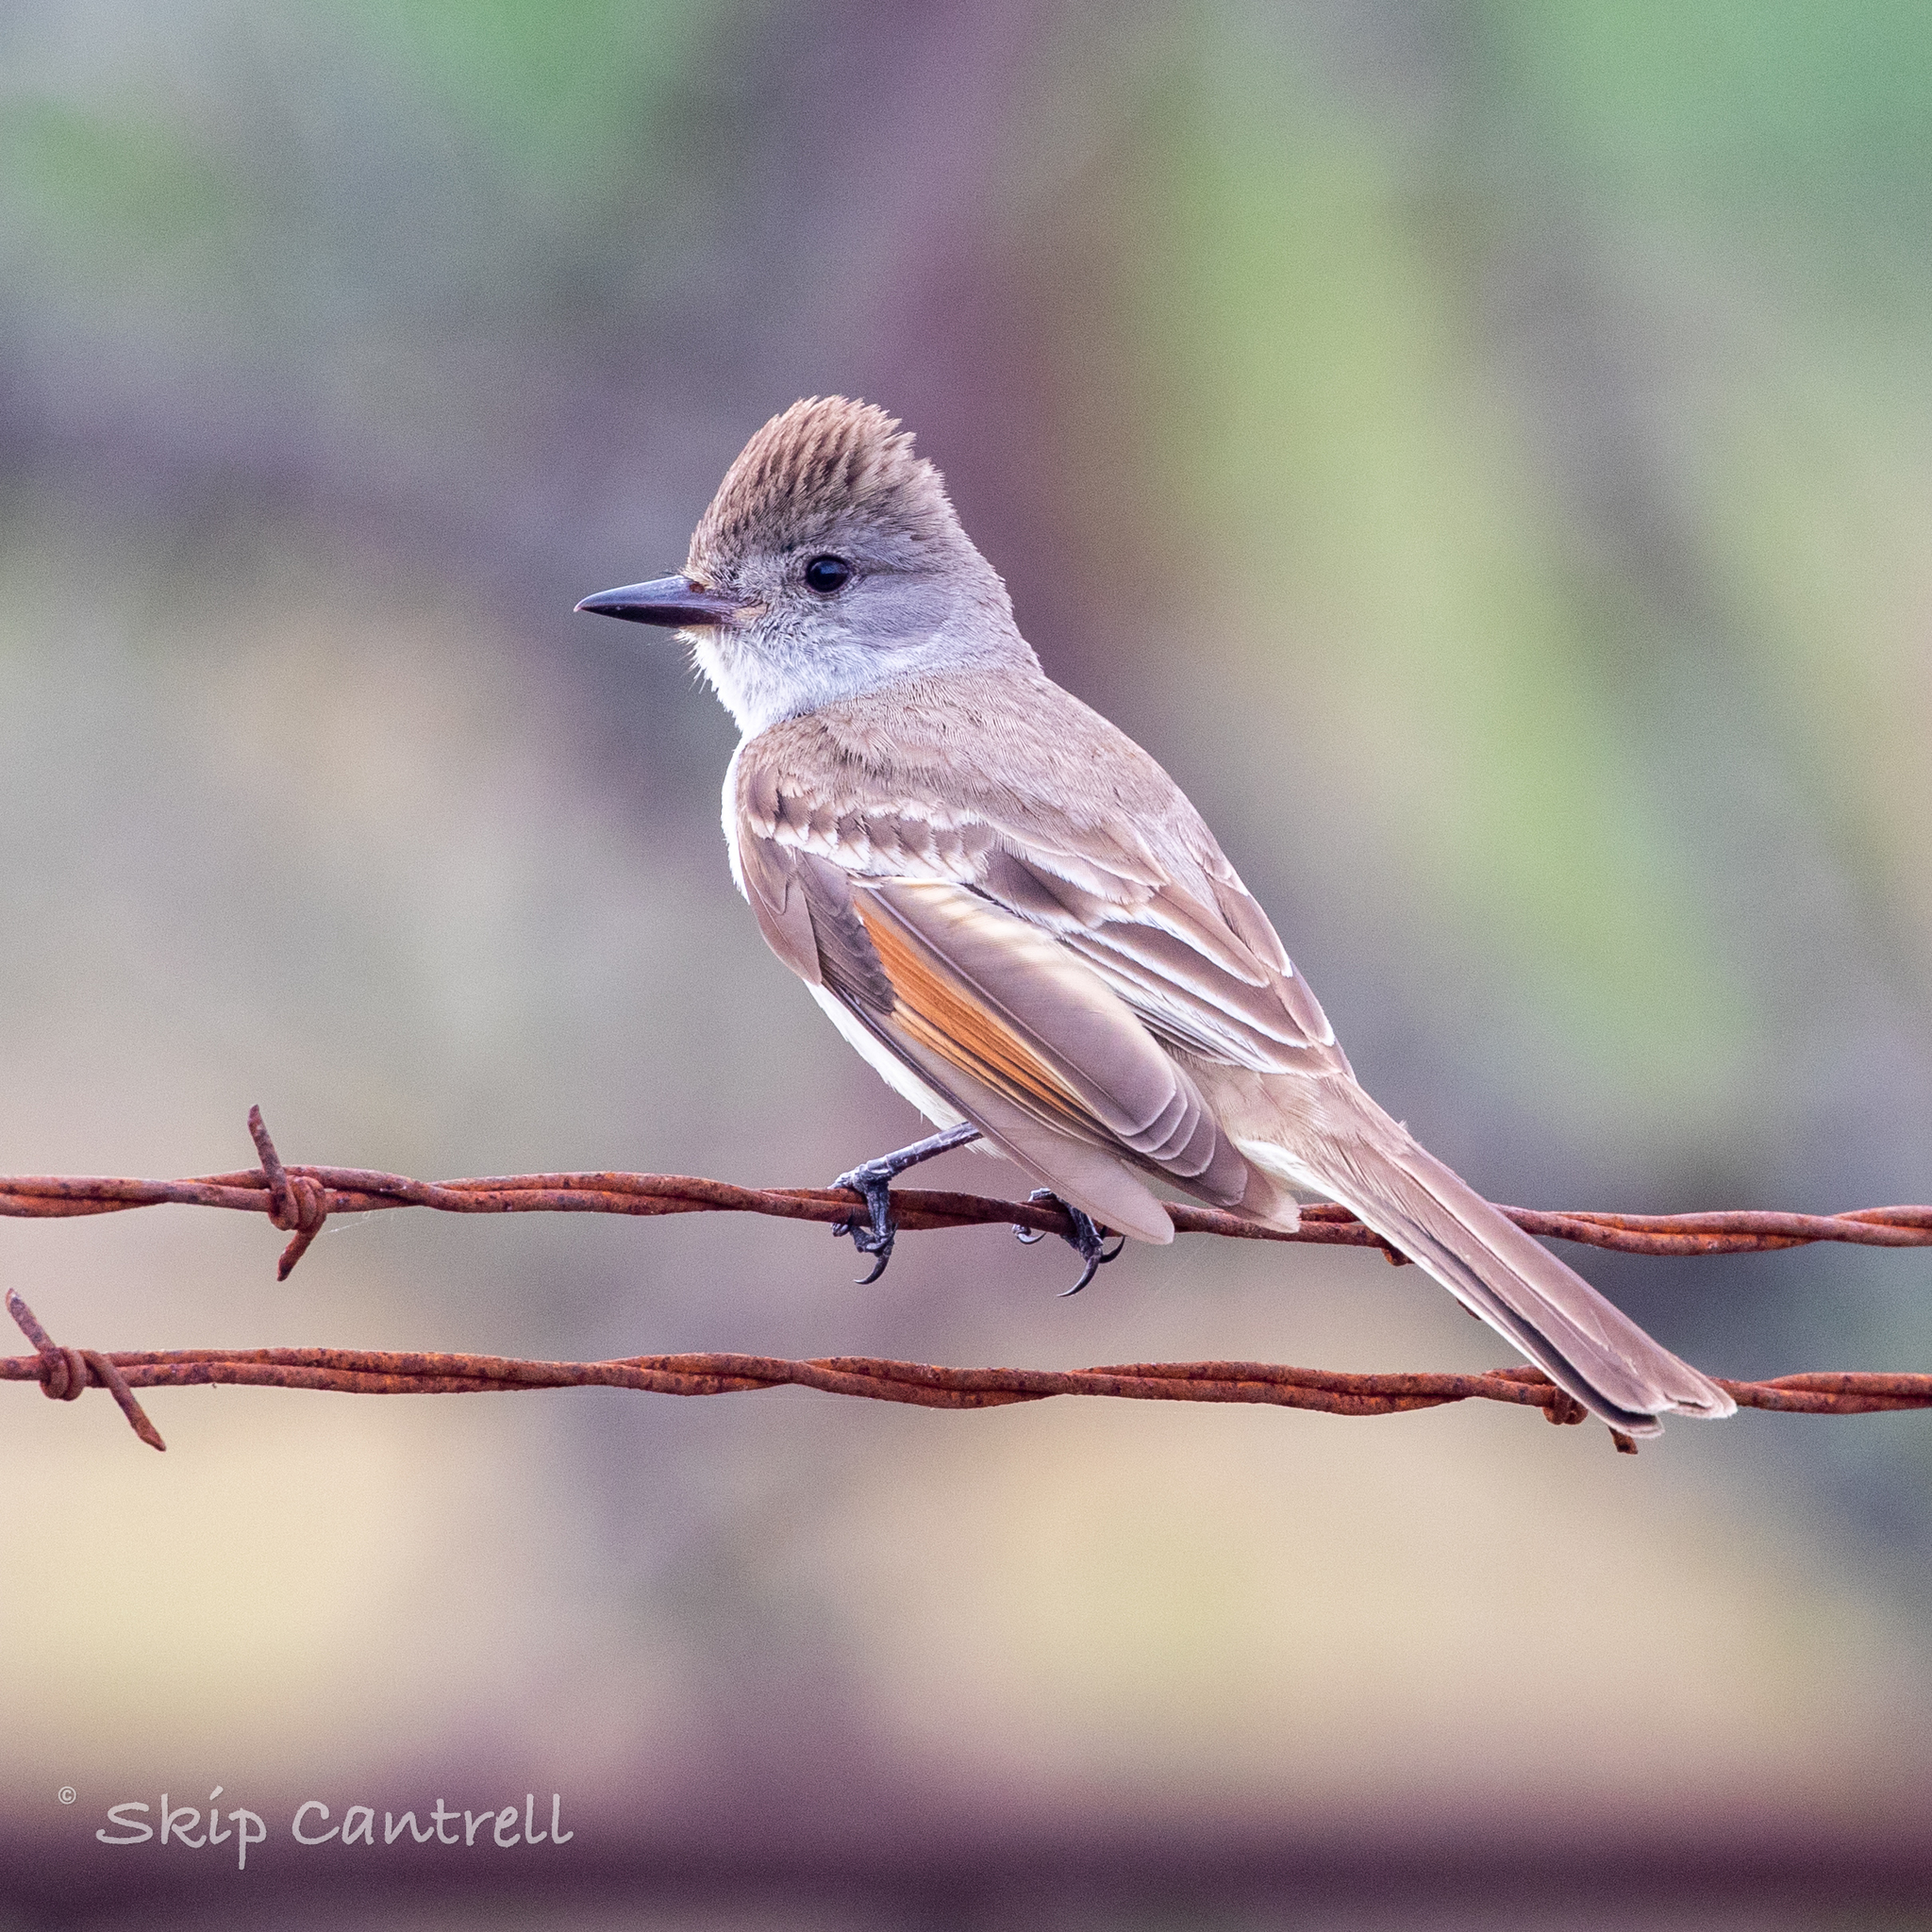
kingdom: Animalia
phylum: Chordata
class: Aves
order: Passeriformes
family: Tyrannidae
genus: Myiarchus
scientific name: Myiarchus cinerascens
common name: Ash-throated flycatcher
